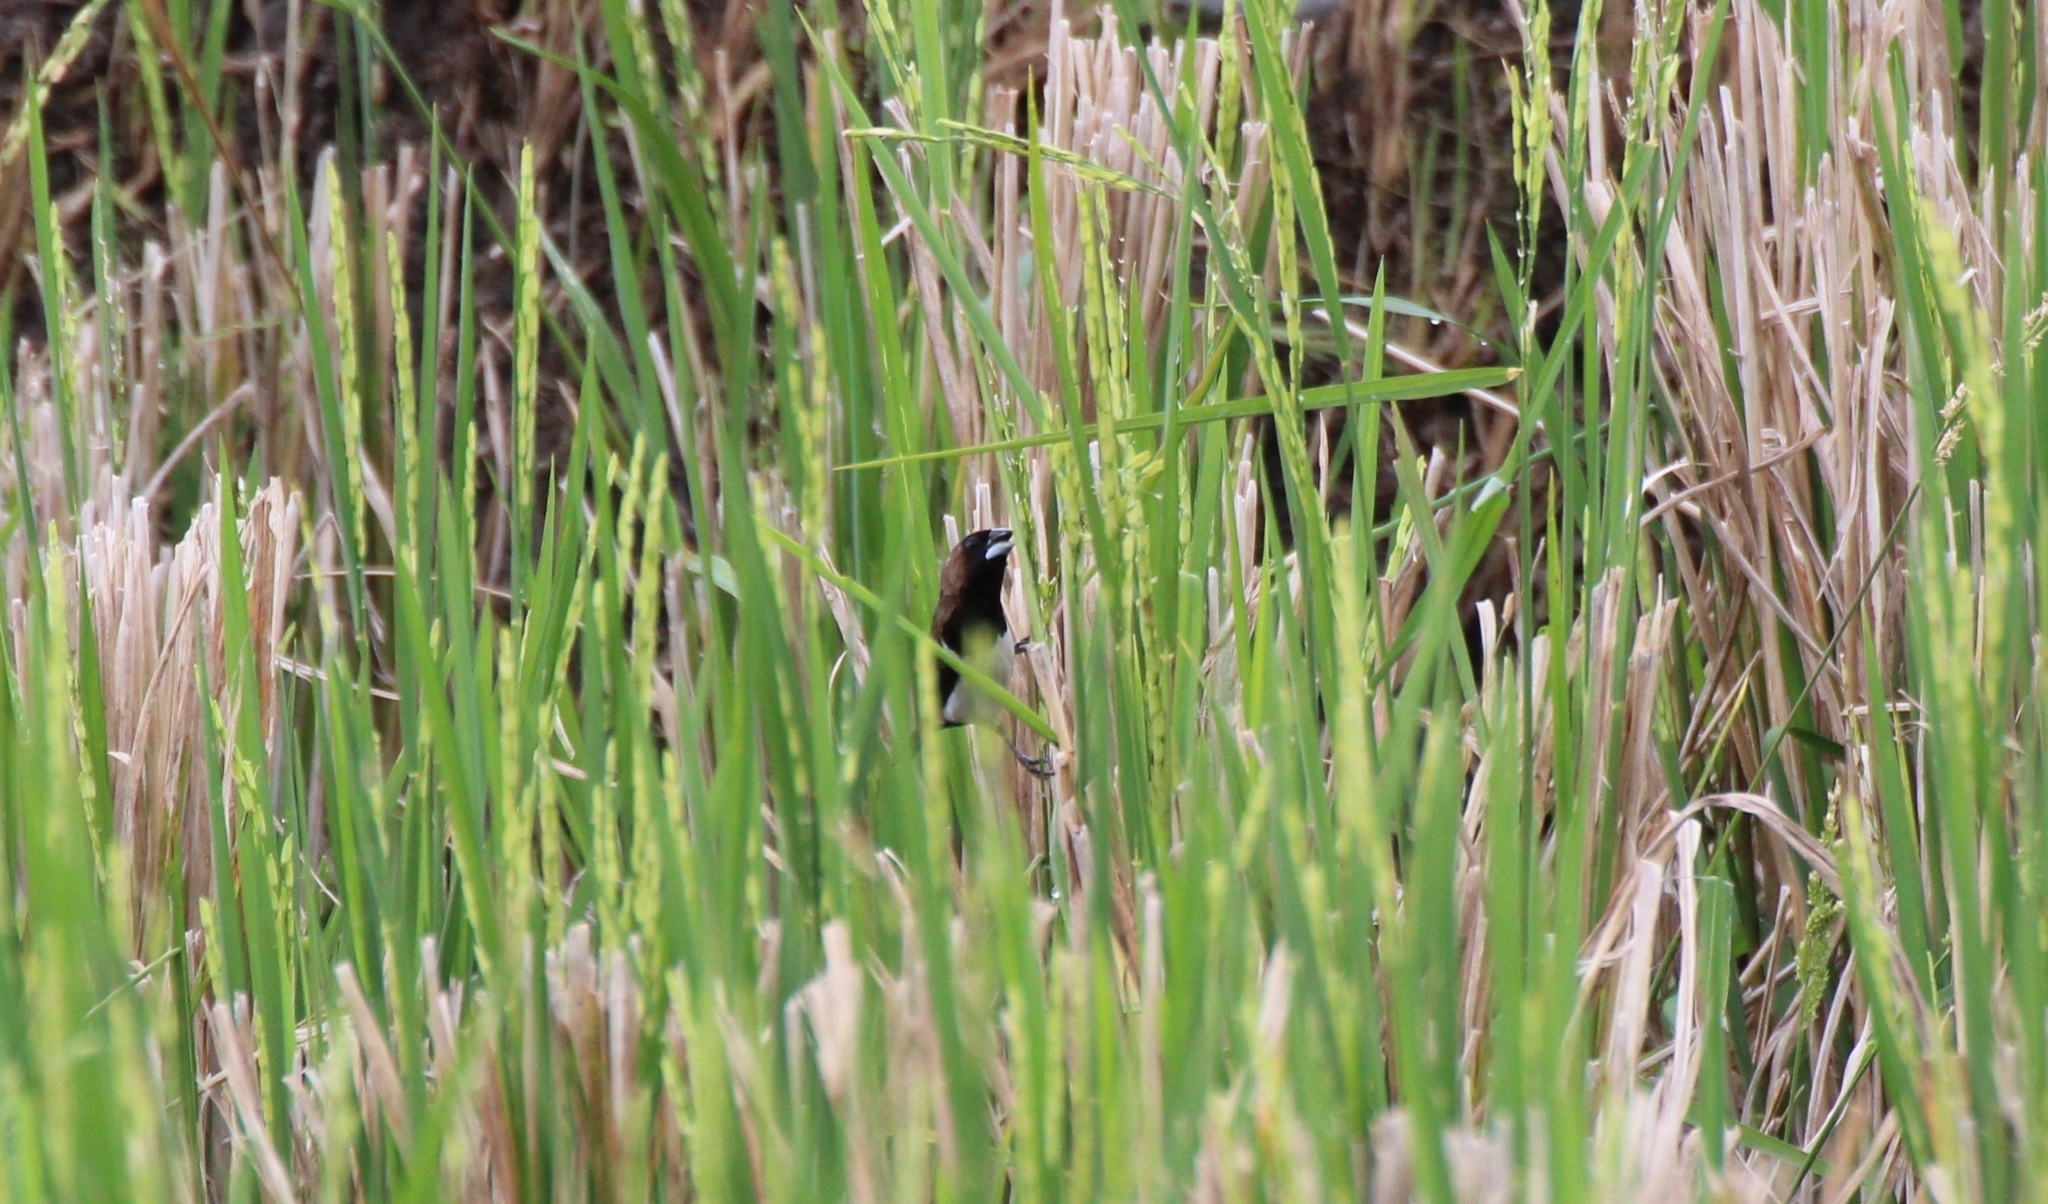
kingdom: Animalia
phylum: Chordata
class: Aves
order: Passeriformes
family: Estrildidae
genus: Lonchura
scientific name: Lonchura leucogastroides
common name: Javan munia
